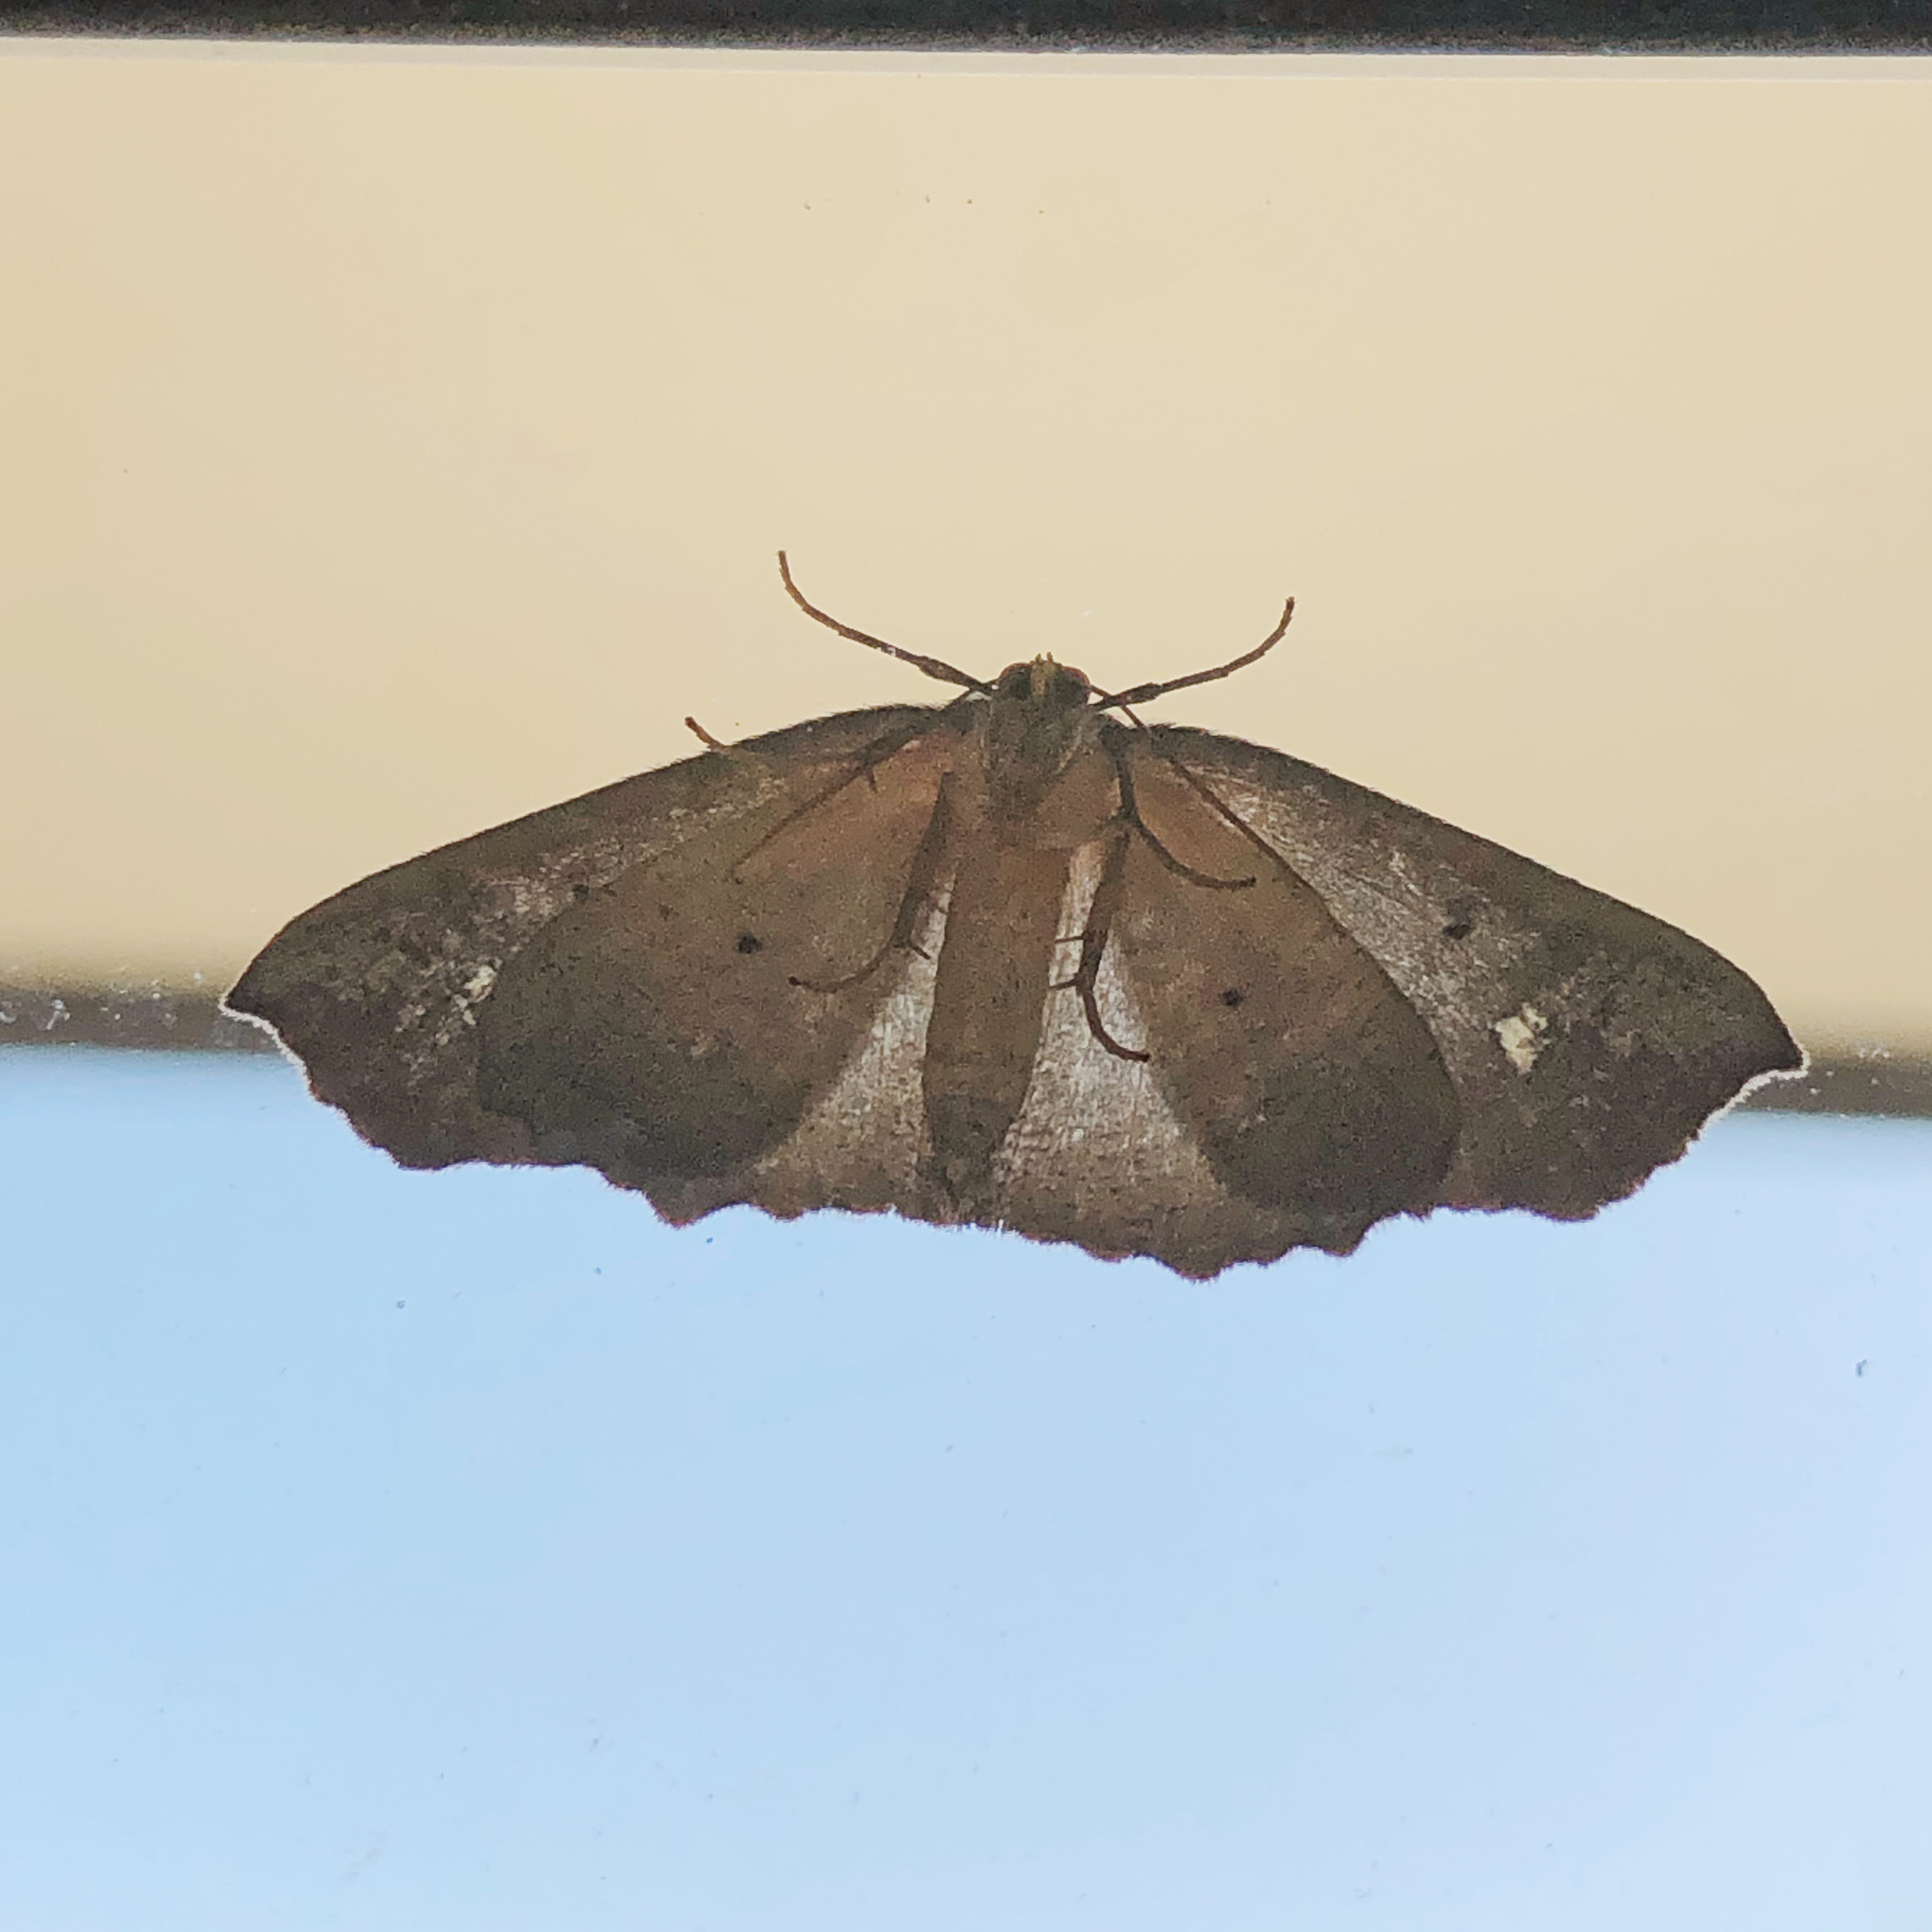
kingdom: Animalia
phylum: Arthropoda
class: Insecta
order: Lepidoptera
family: Geometridae
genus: Xyridacma
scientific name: Xyridacma ustaria
